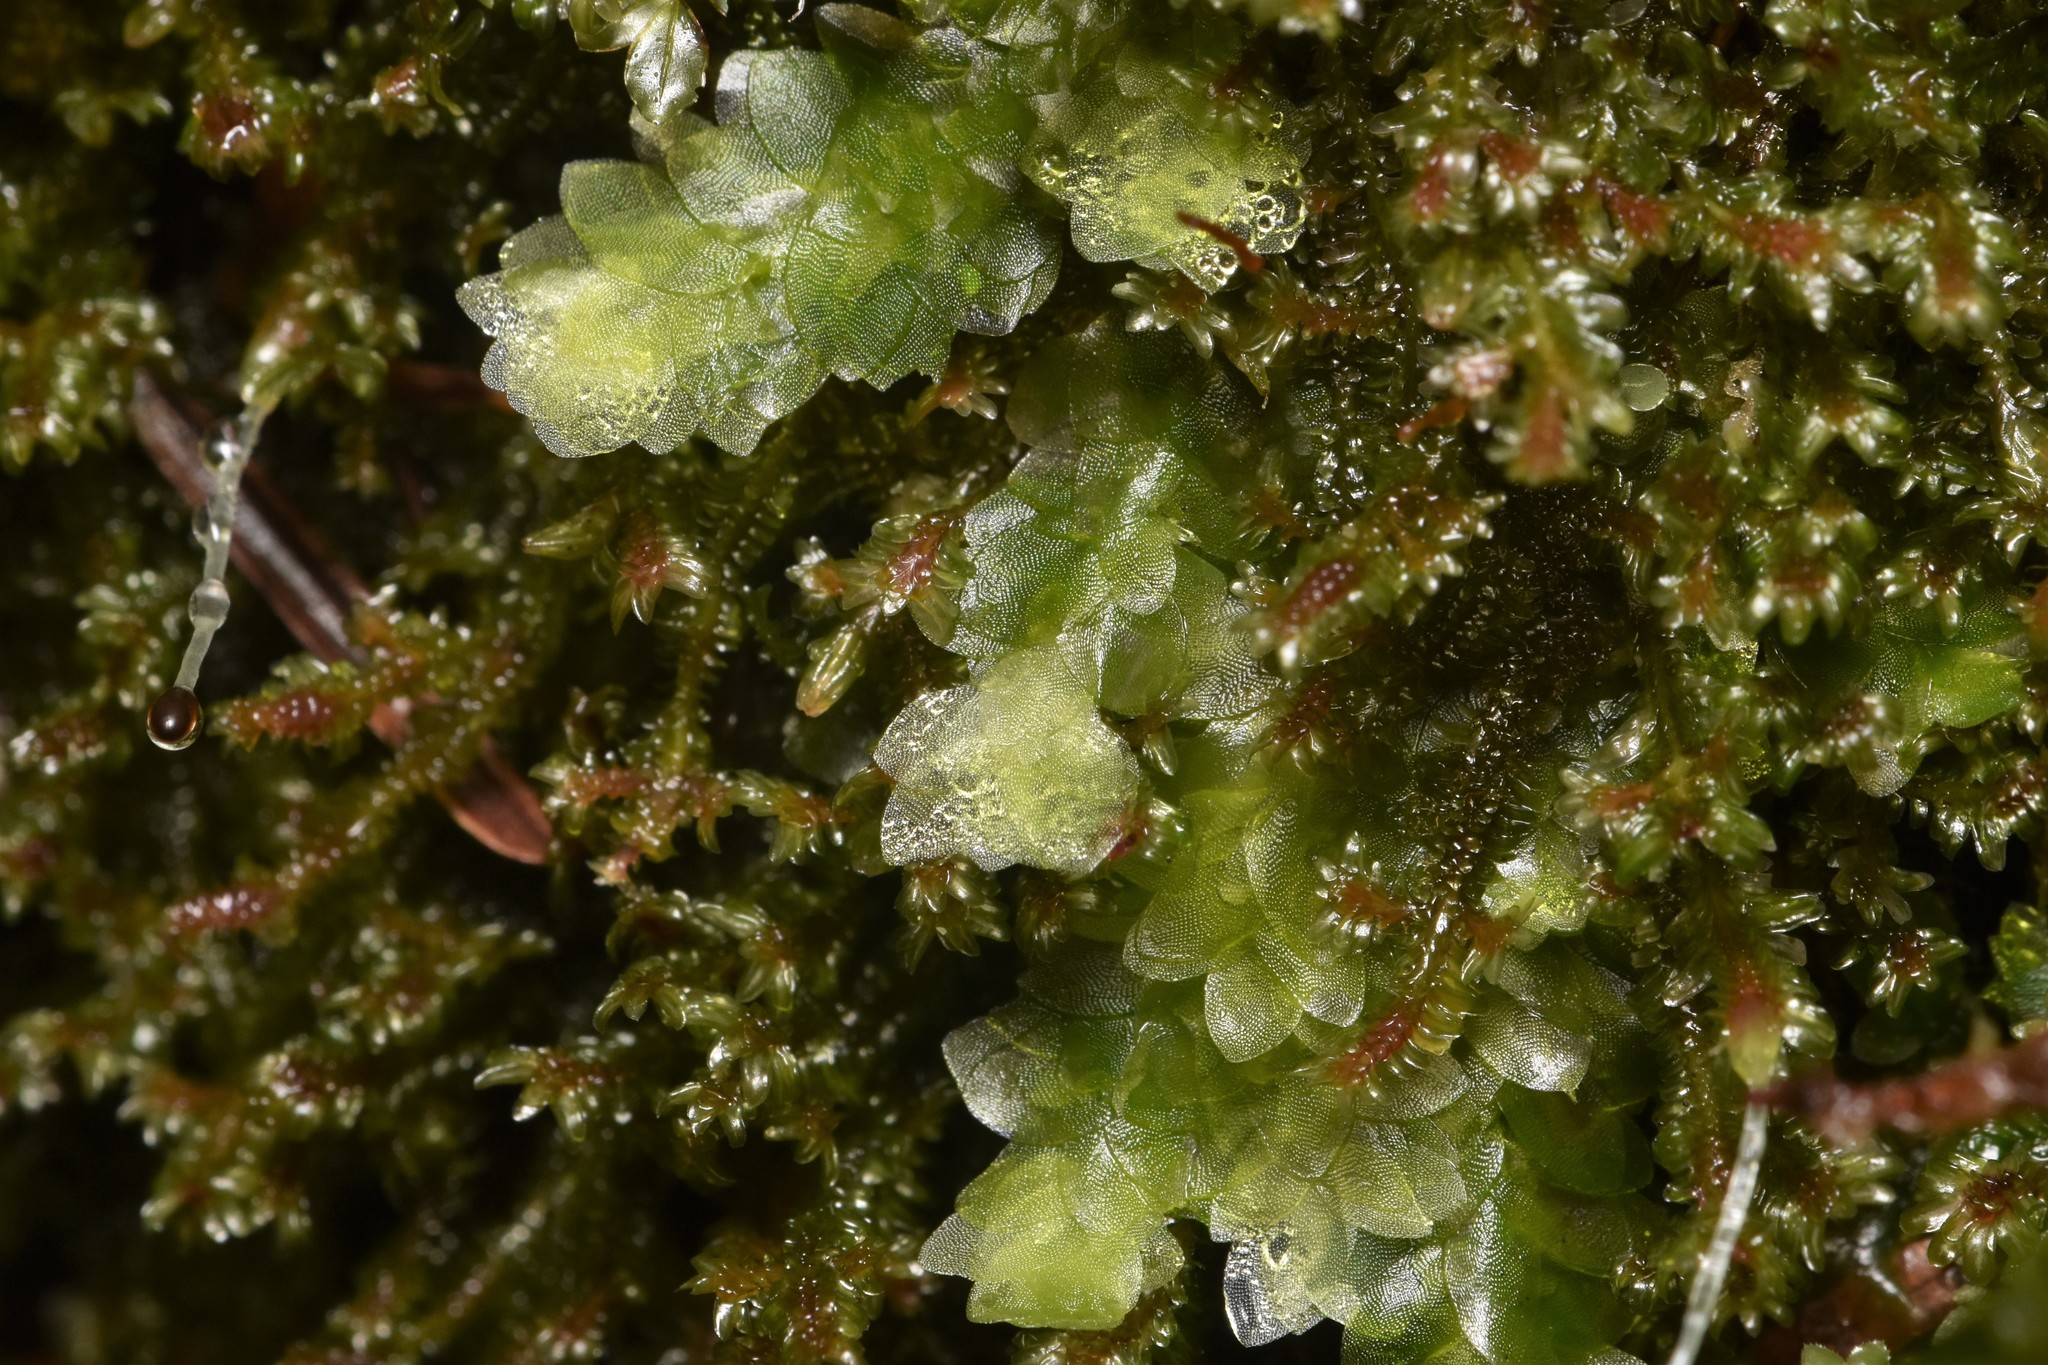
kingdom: Plantae
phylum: Bryophyta
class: Bryopsida
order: Hookeriales
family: Hookeriaceae
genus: Hookeria
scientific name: Hookeria lucens
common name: Shining hookeria
